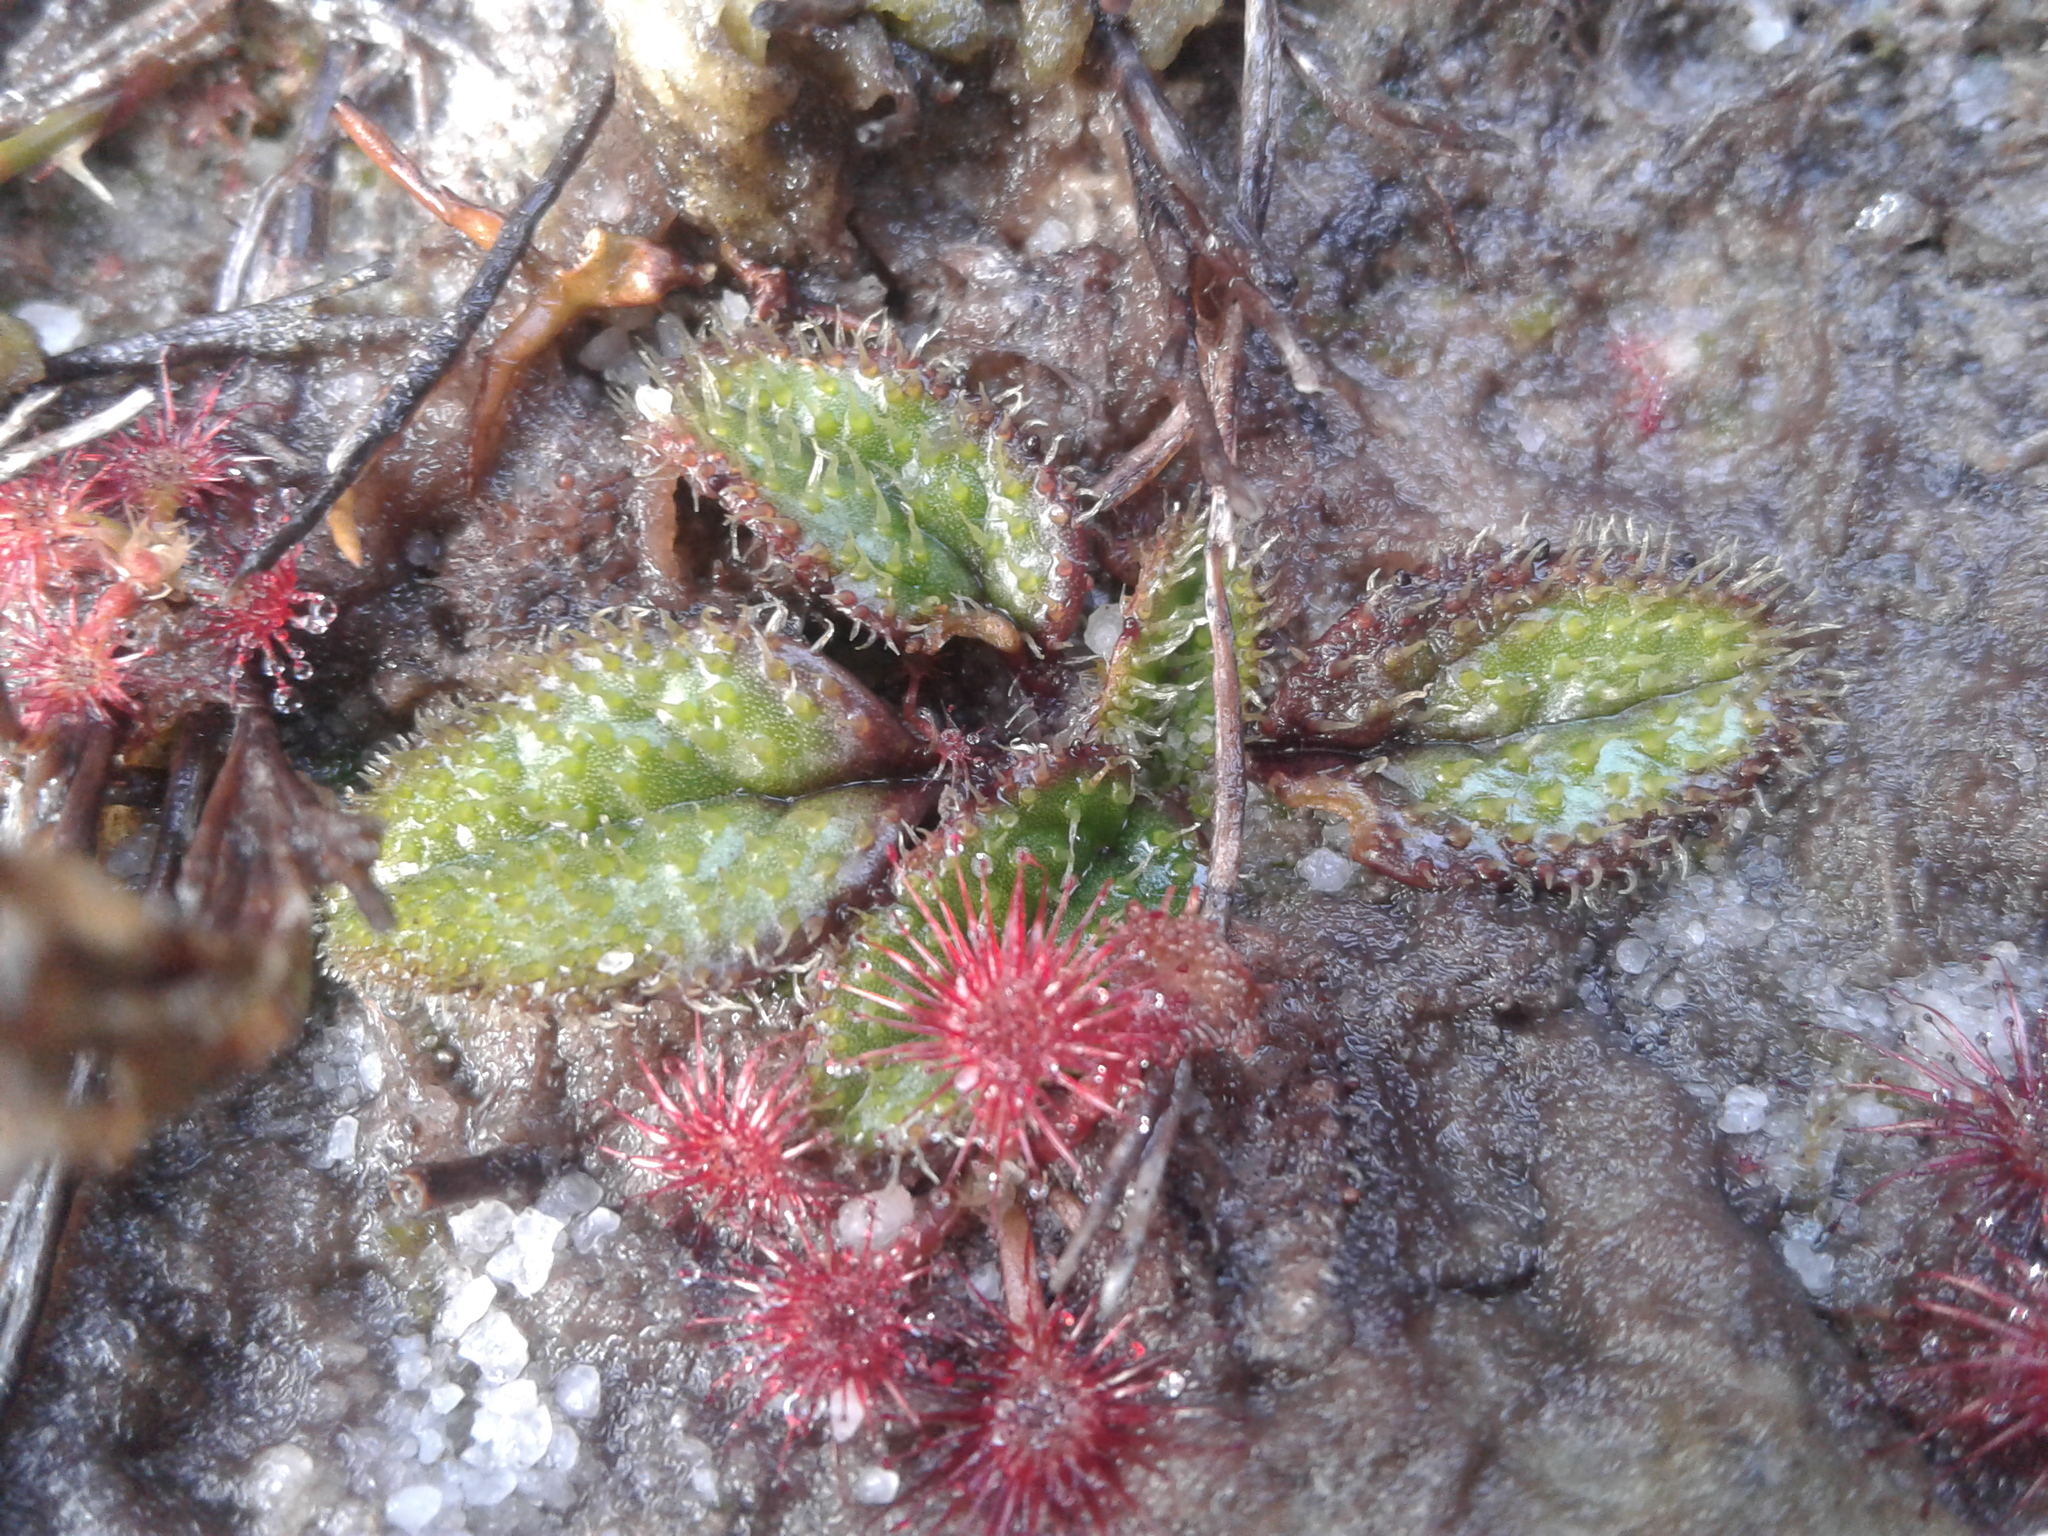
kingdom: Plantae
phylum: Tracheophyta
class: Magnoliopsida
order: Asterales
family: Asteraceae
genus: Brachyglottis
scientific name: Brachyglottis bellidioides
